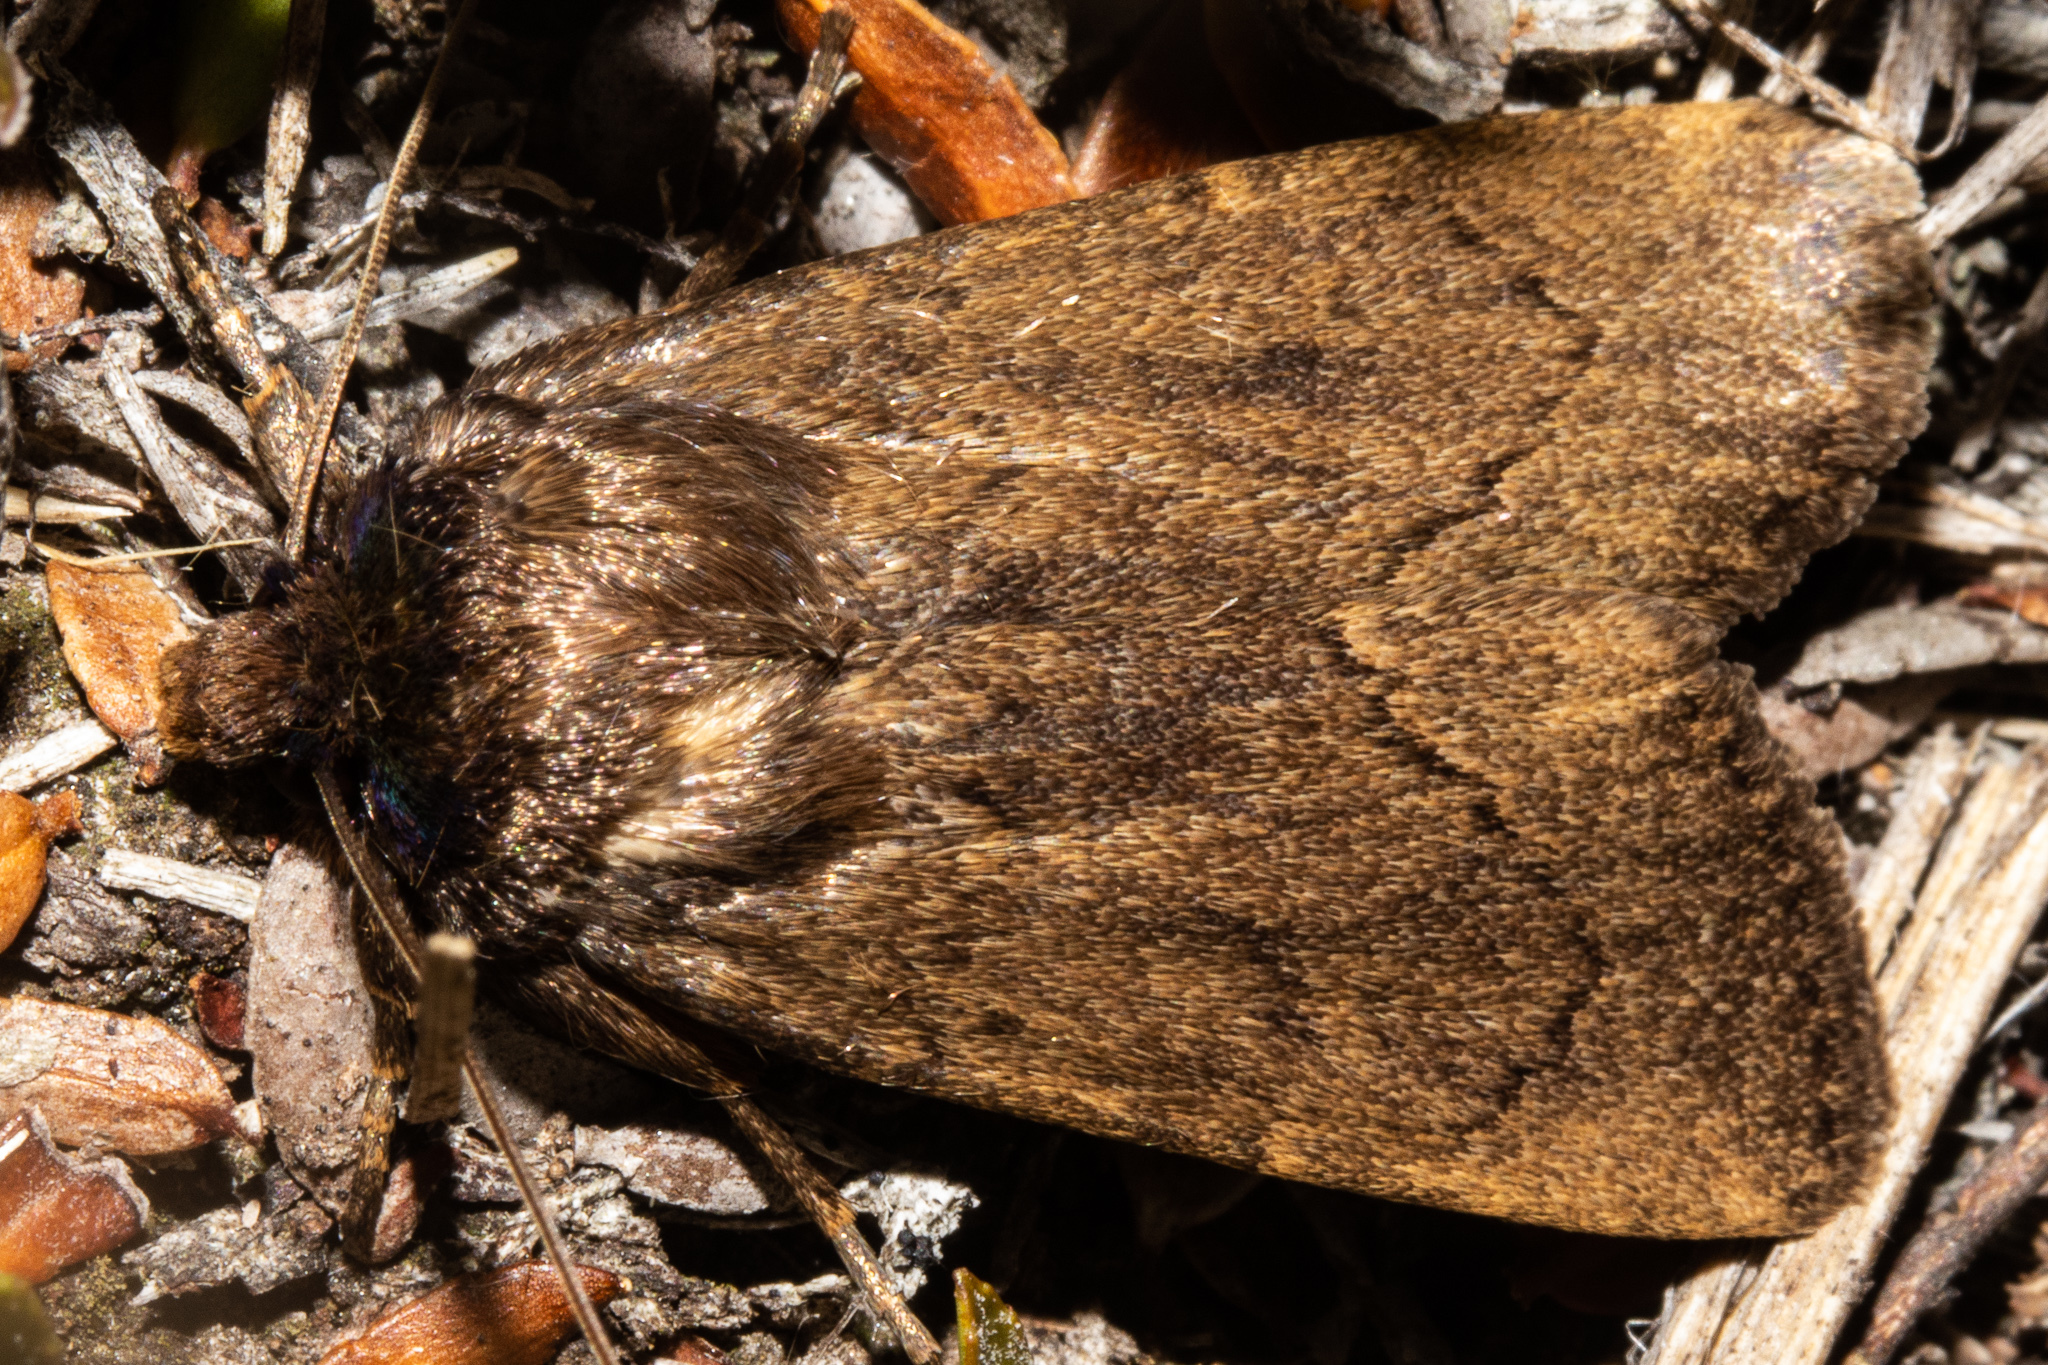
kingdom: Animalia
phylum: Arthropoda
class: Insecta
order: Lepidoptera
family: Noctuidae
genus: Bityla
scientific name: Bityla defigurata
